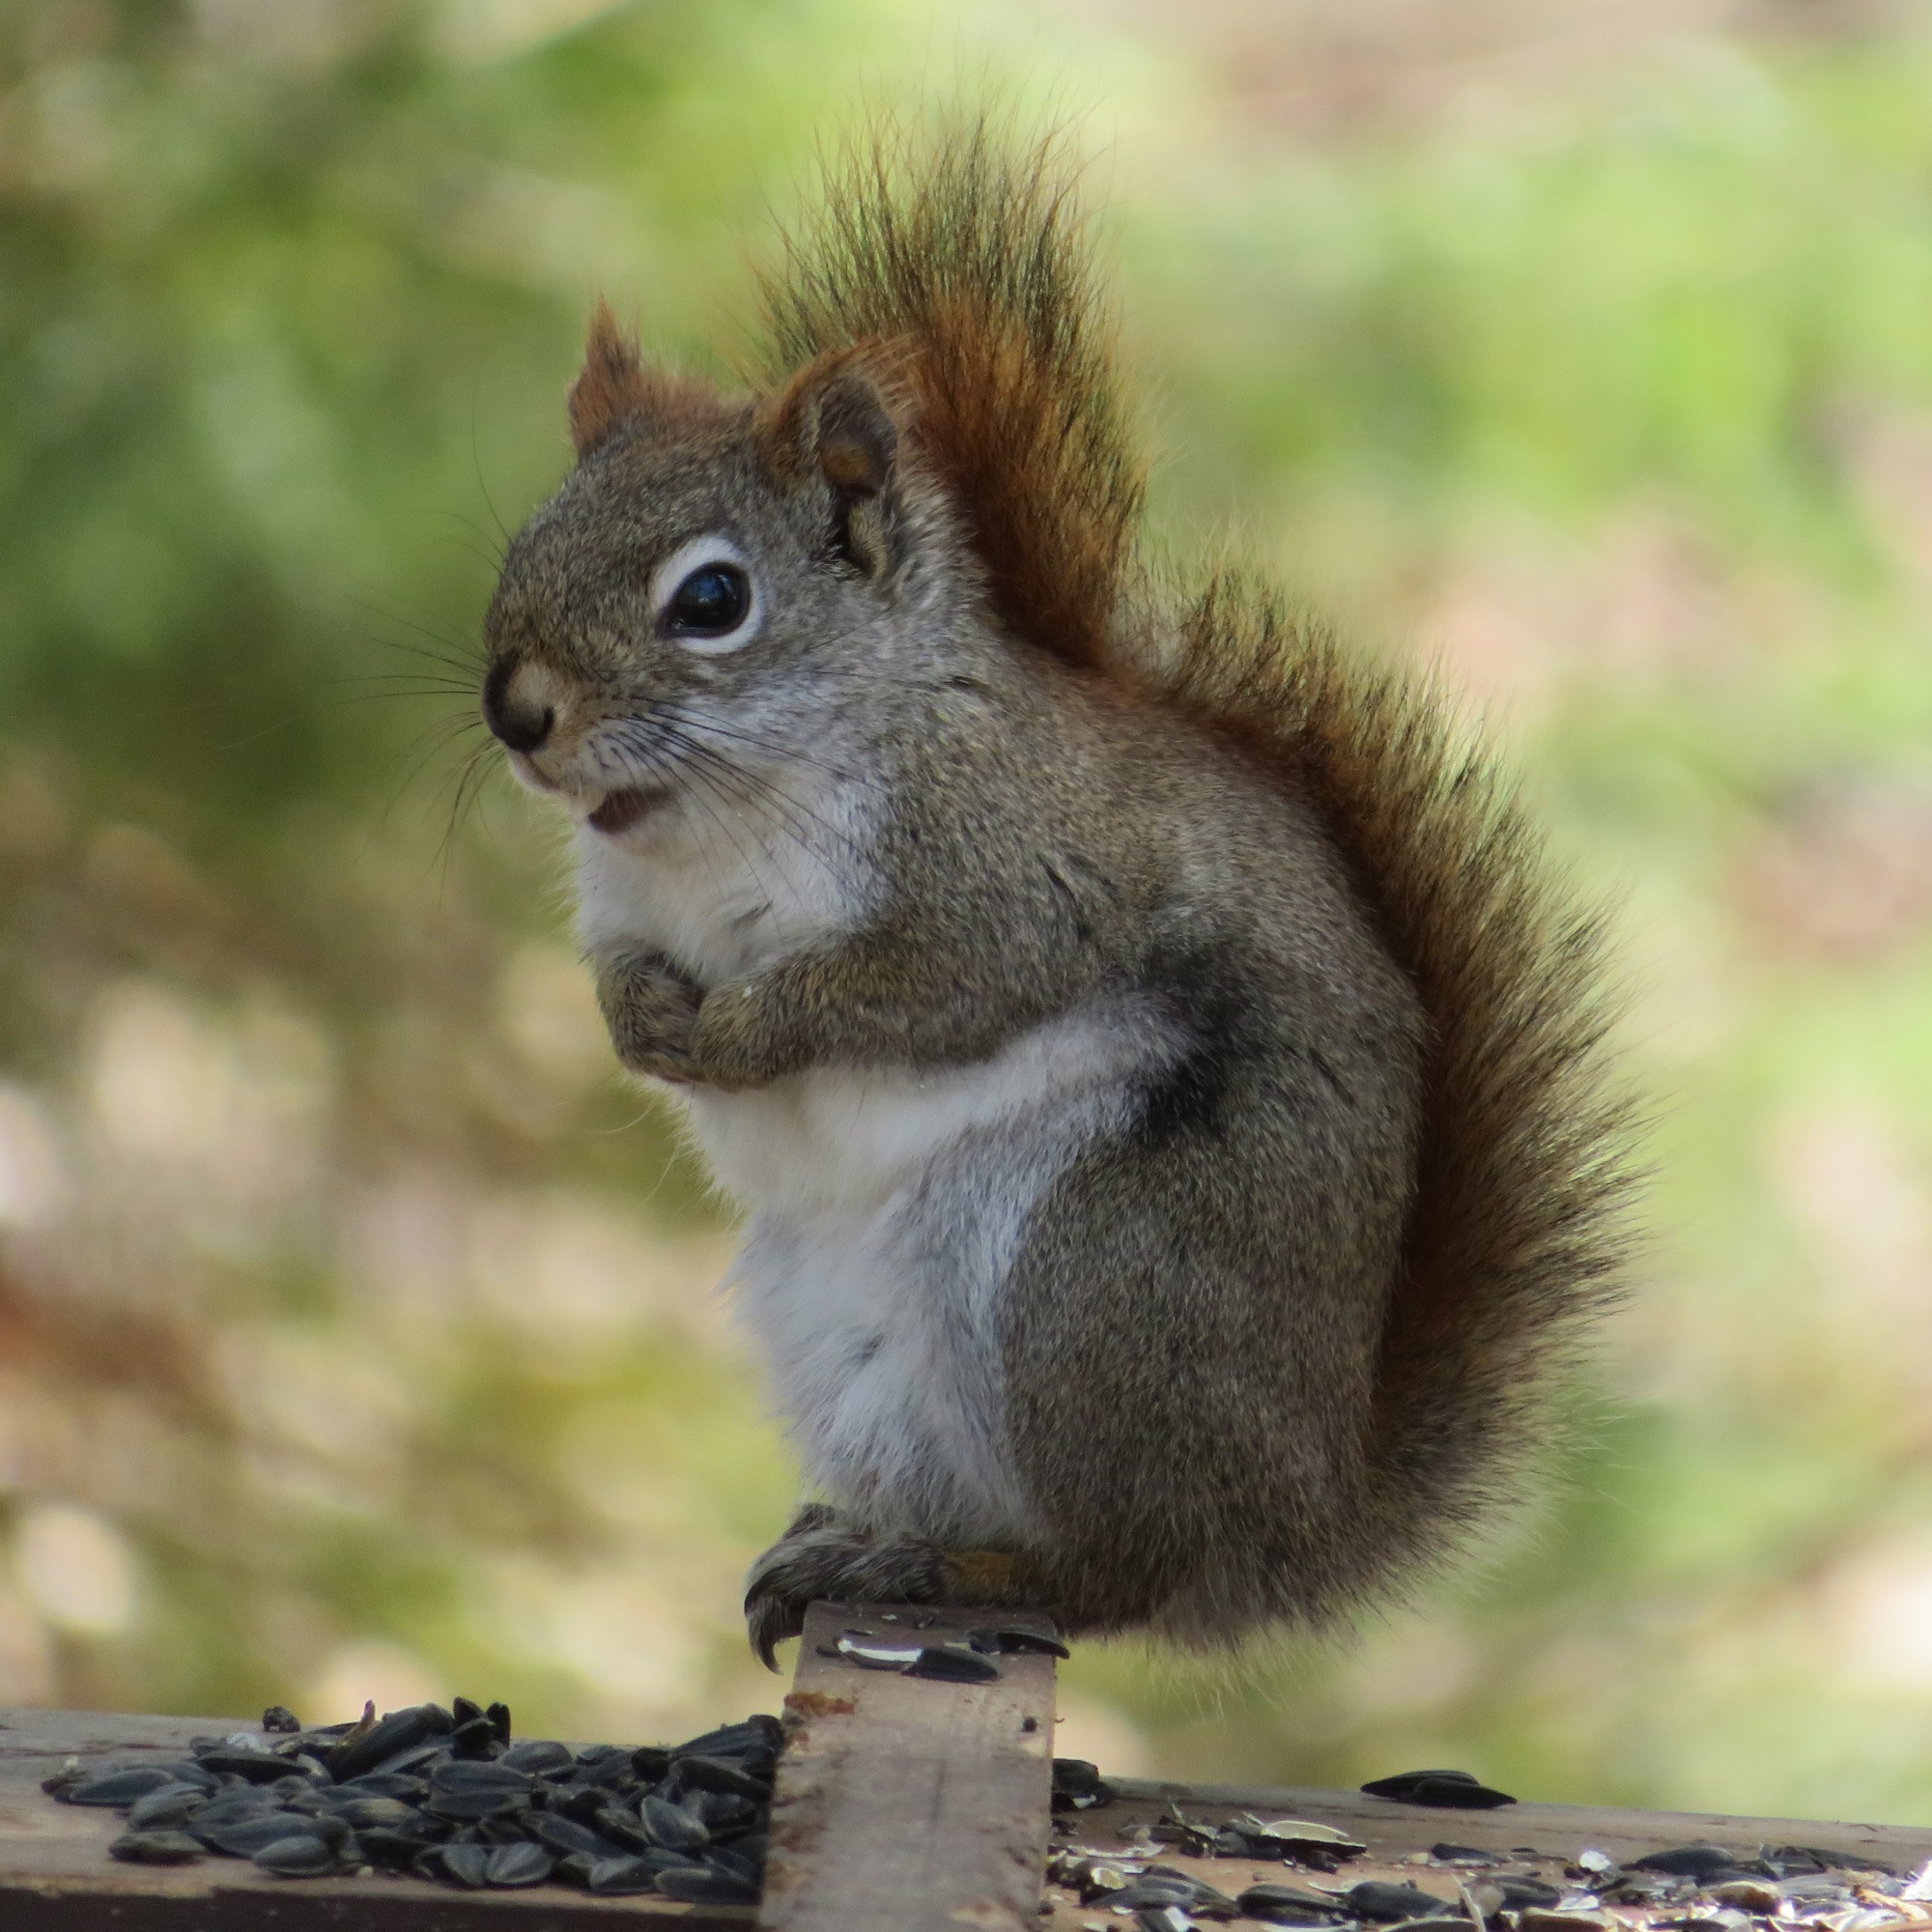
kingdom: Animalia
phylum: Chordata
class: Mammalia
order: Rodentia
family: Sciuridae
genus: Tamiasciurus
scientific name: Tamiasciurus hudsonicus
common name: Red squirrel
